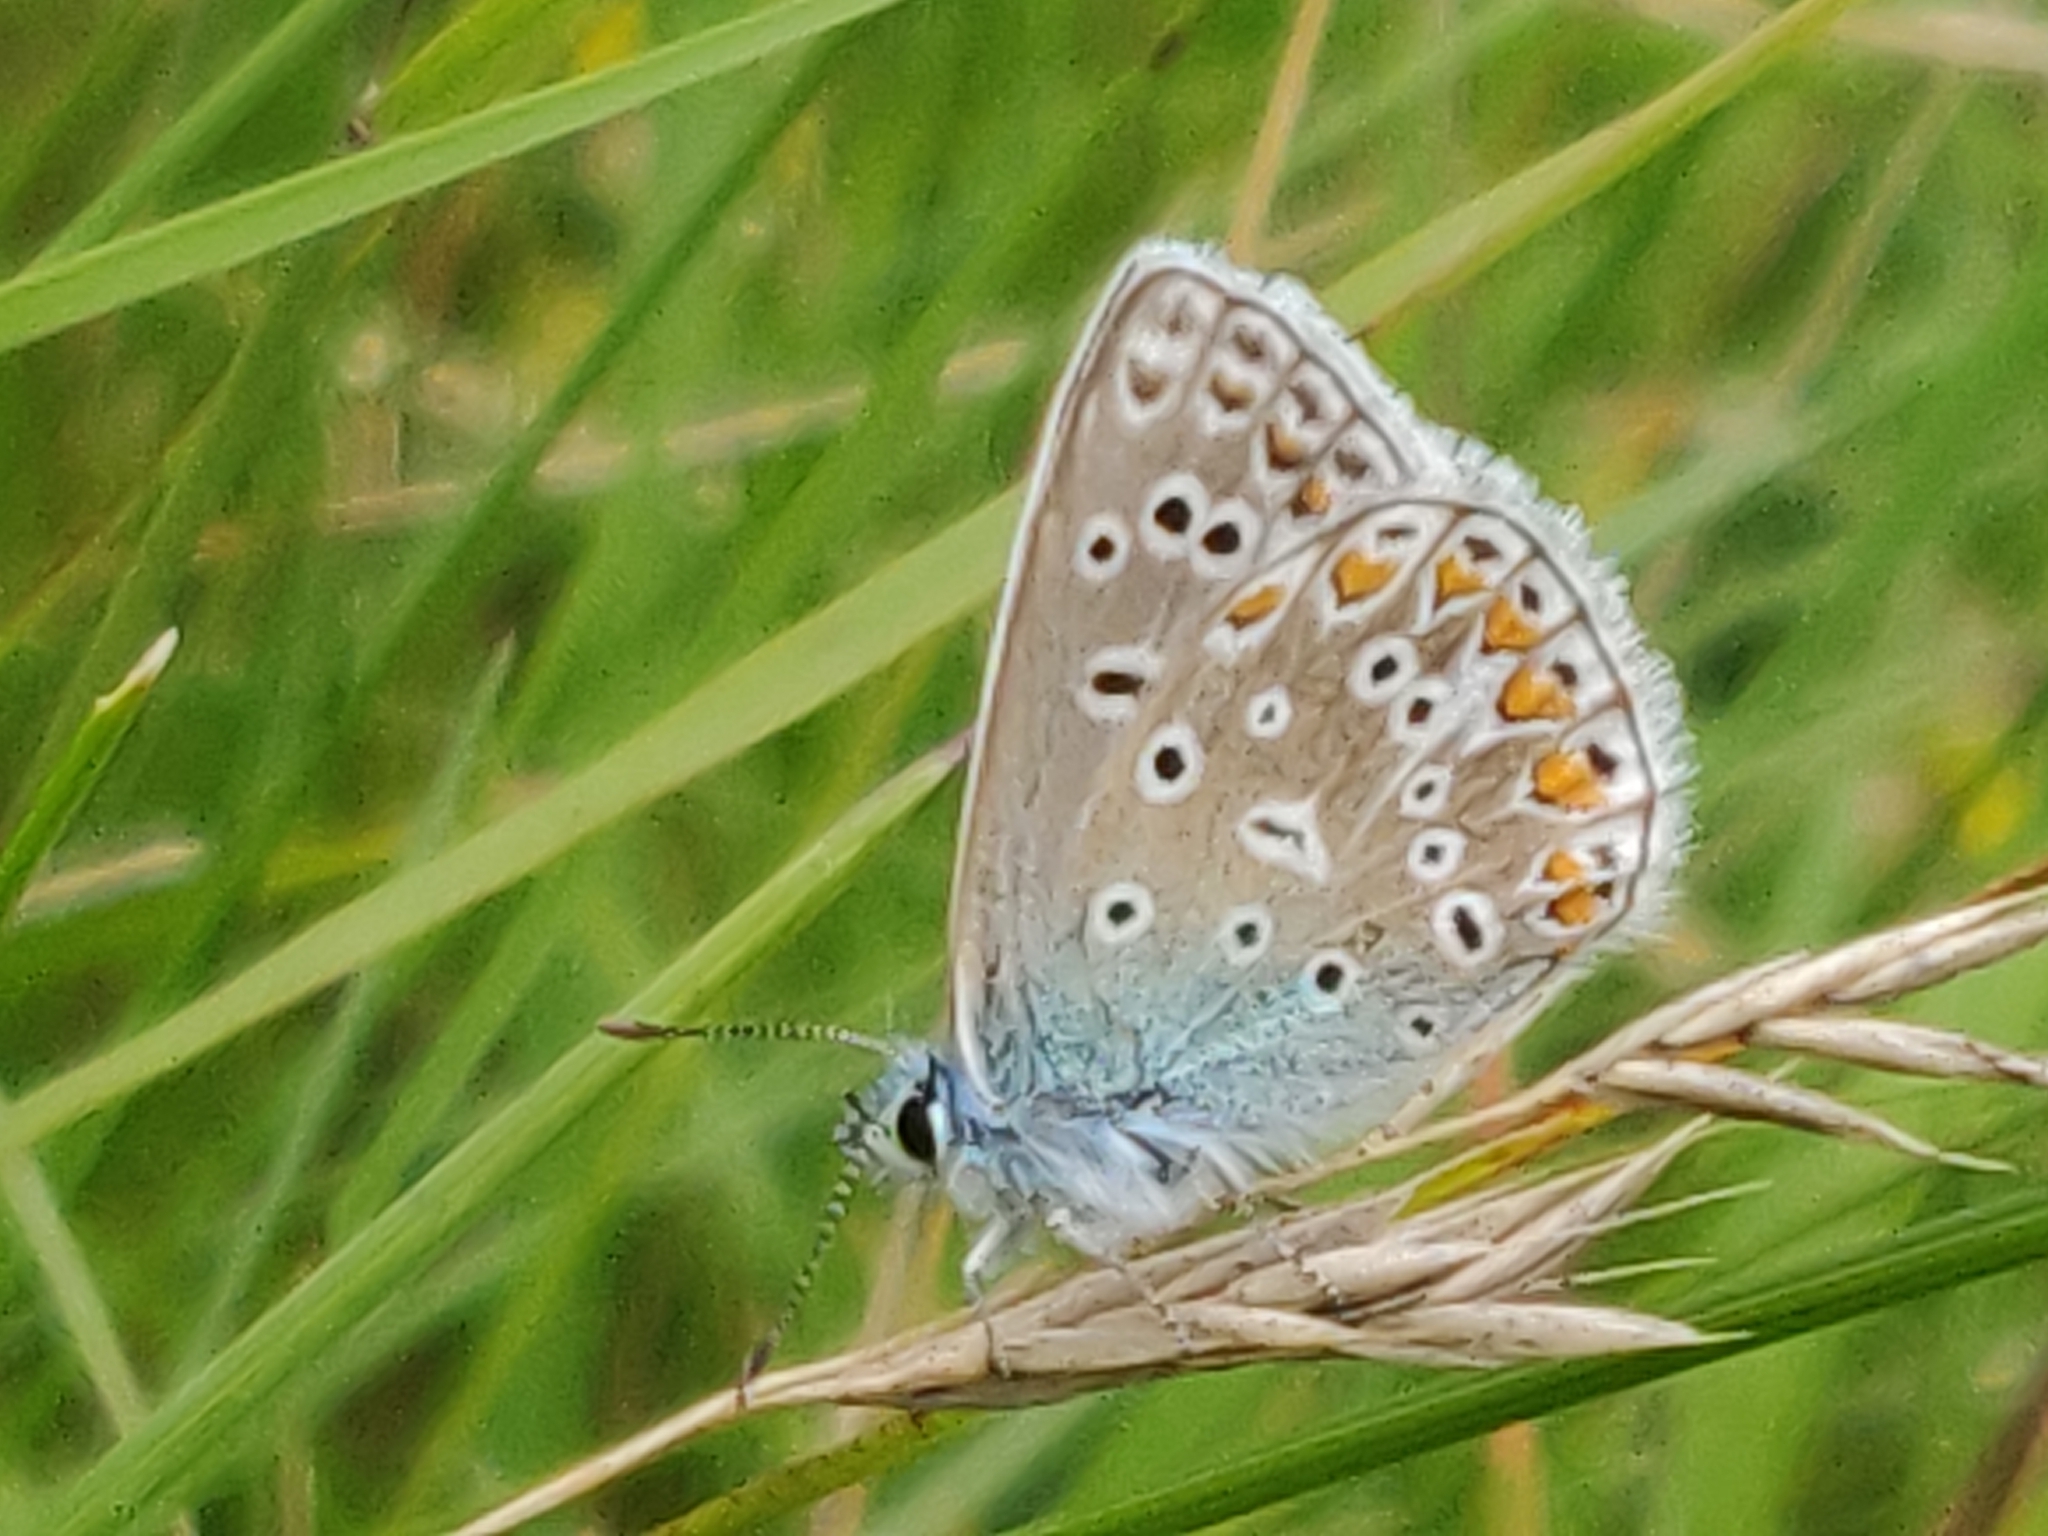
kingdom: Animalia
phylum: Arthropoda
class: Insecta
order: Lepidoptera
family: Lycaenidae
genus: Polyommatus
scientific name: Polyommatus icarus
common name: Common blue
